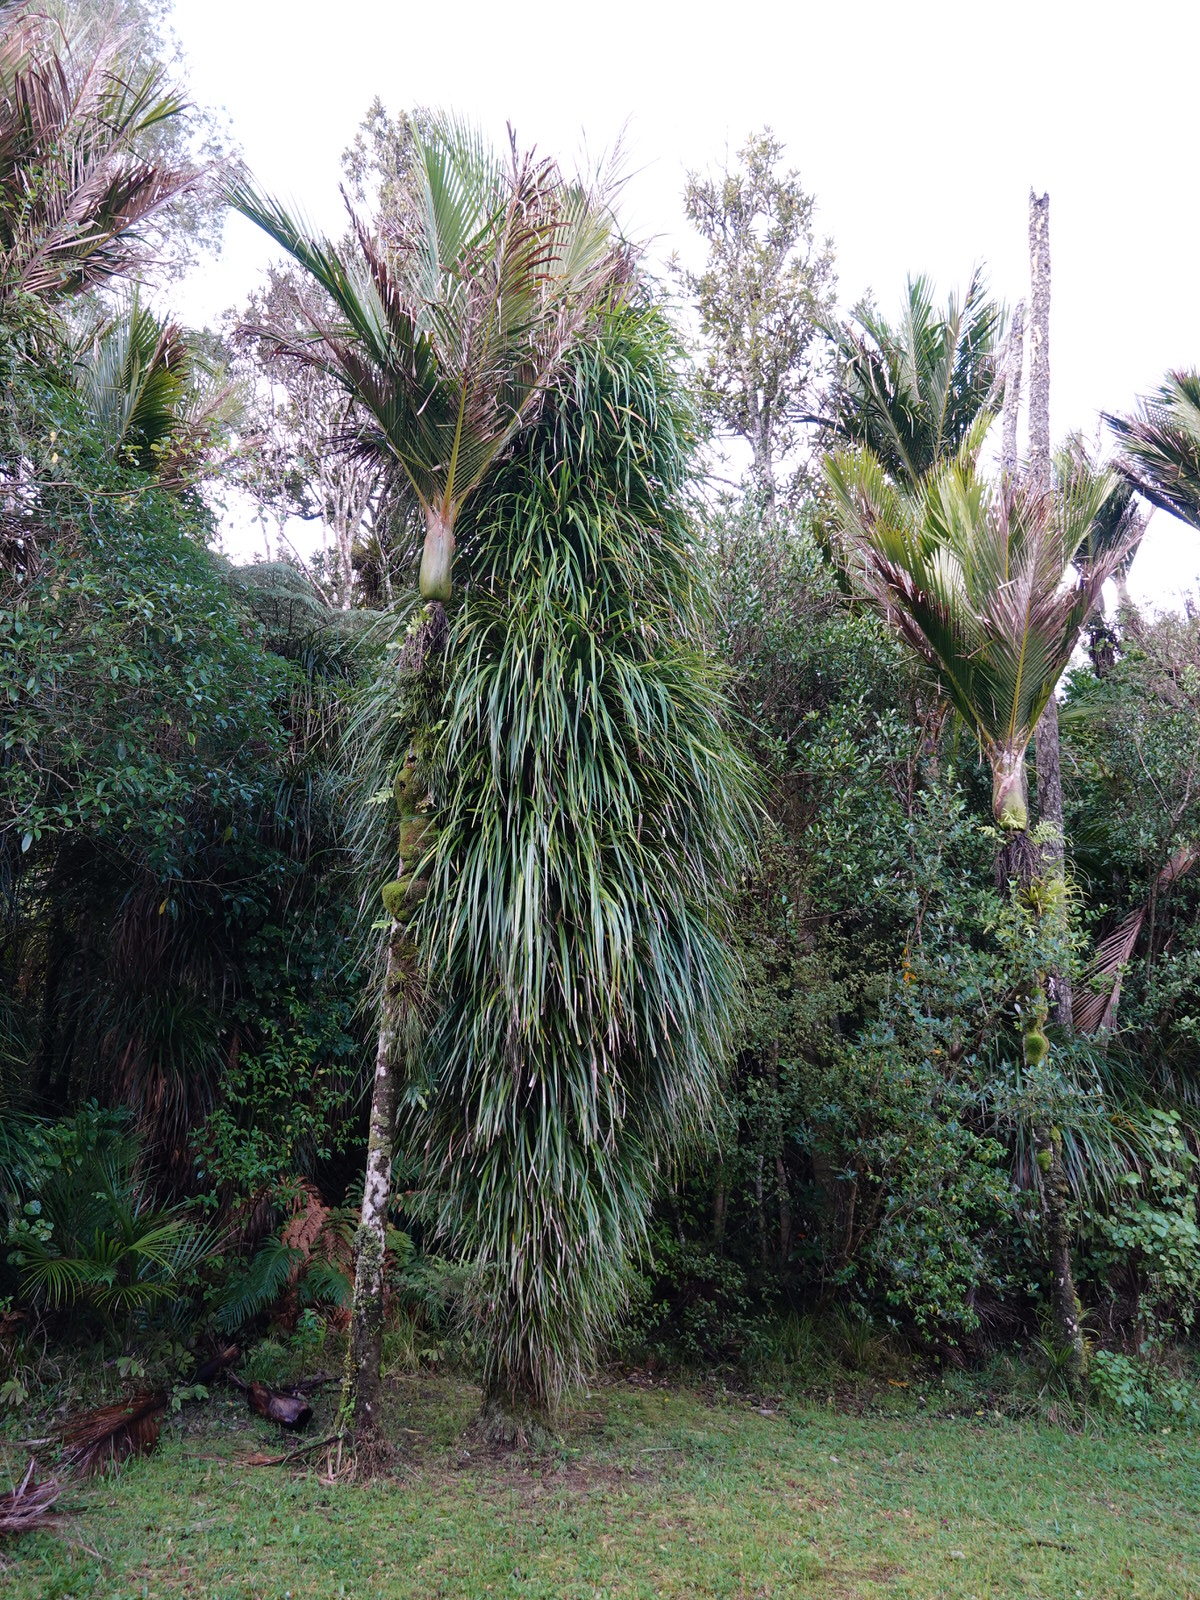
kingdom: Plantae
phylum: Tracheophyta
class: Liliopsida
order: Pandanales
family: Pandanaceae
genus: Freycinetia
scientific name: Freycinetia banksii
